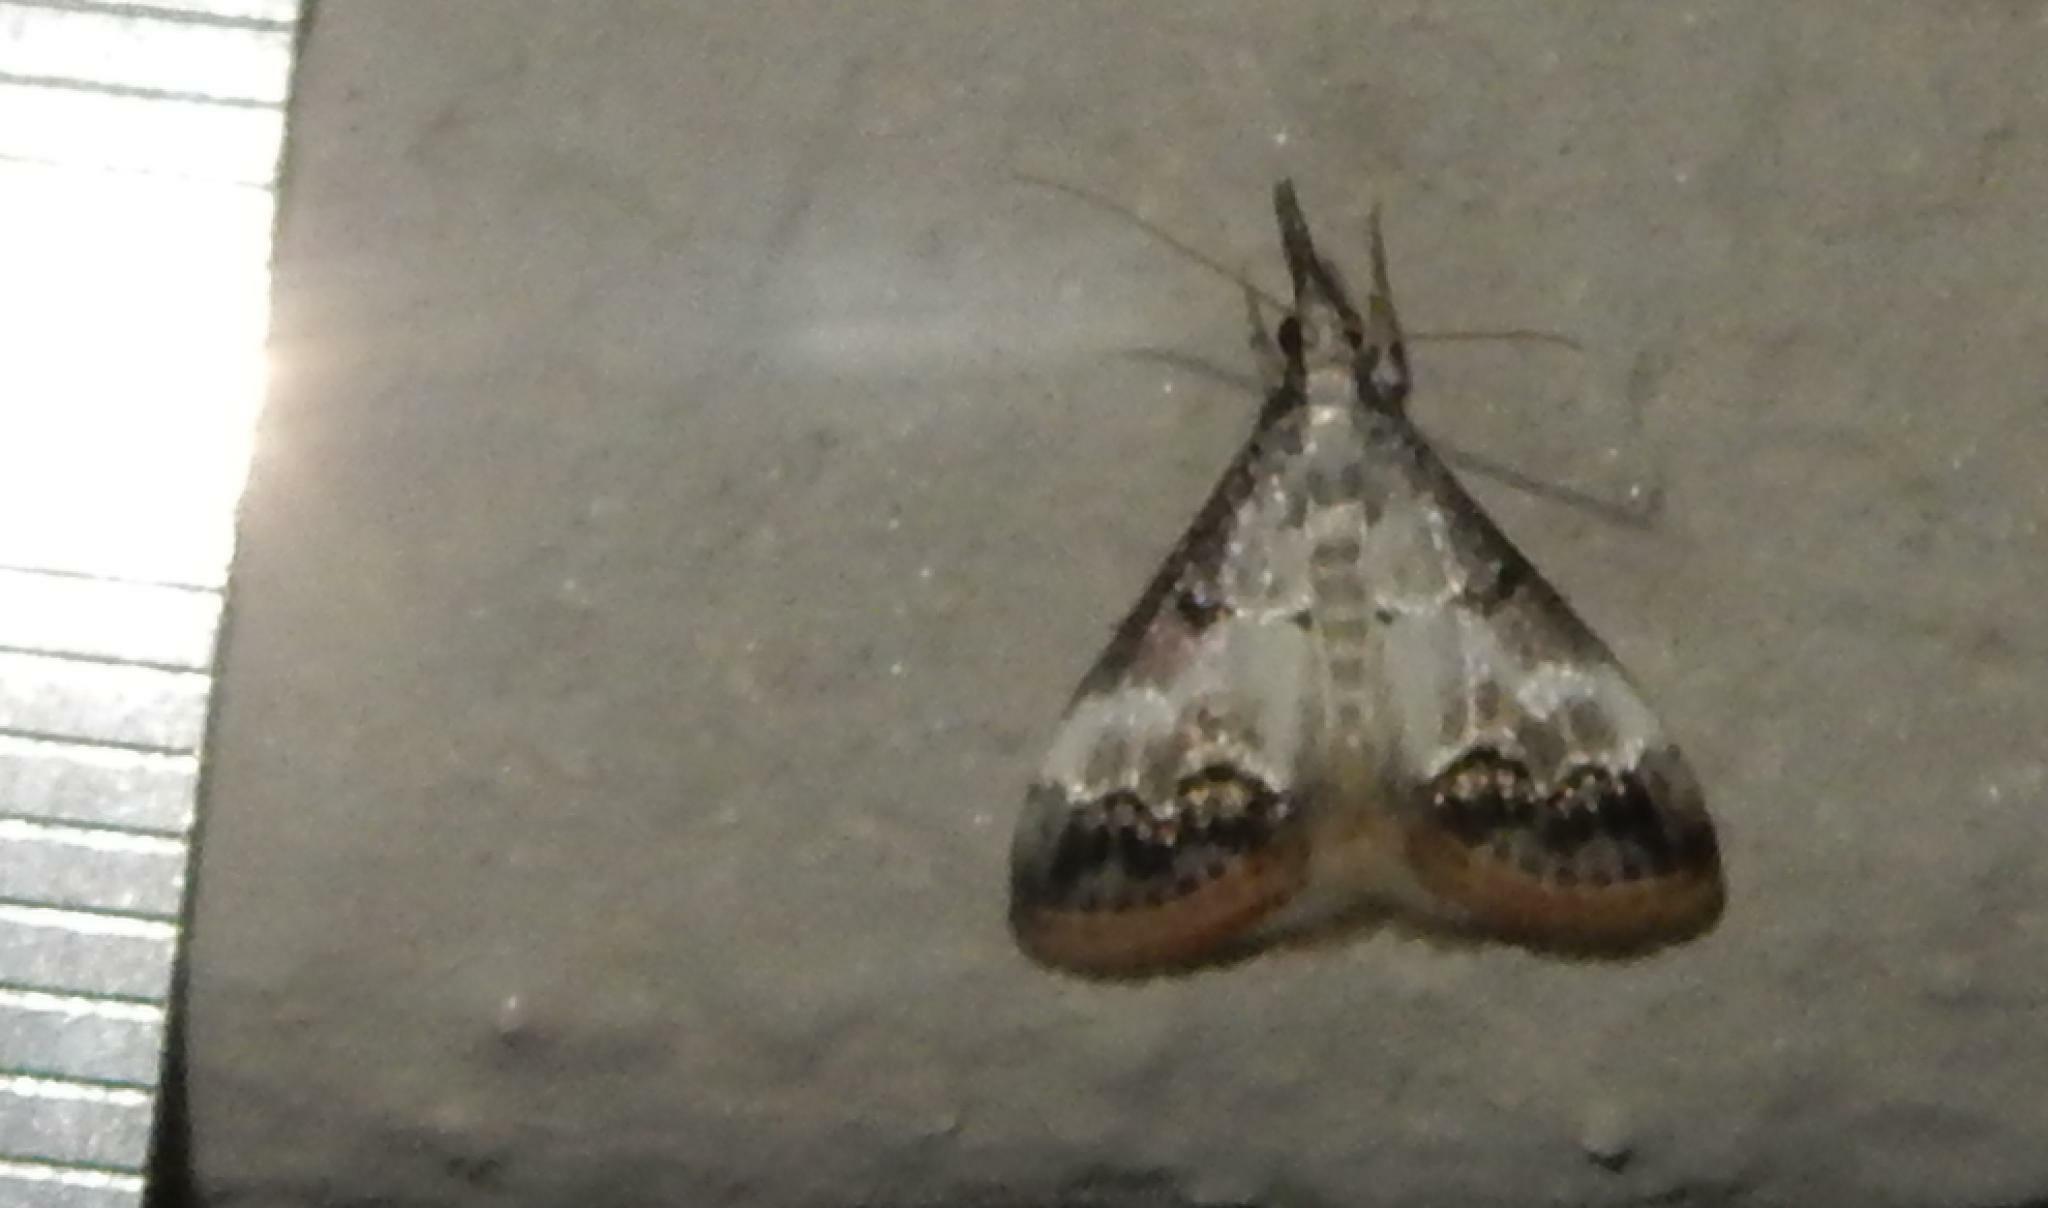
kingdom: Animalia
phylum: Arthropoda
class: Insecta
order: Lepidoptera
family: Crambidae
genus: Autocharis
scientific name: Autocharis albiplaga
